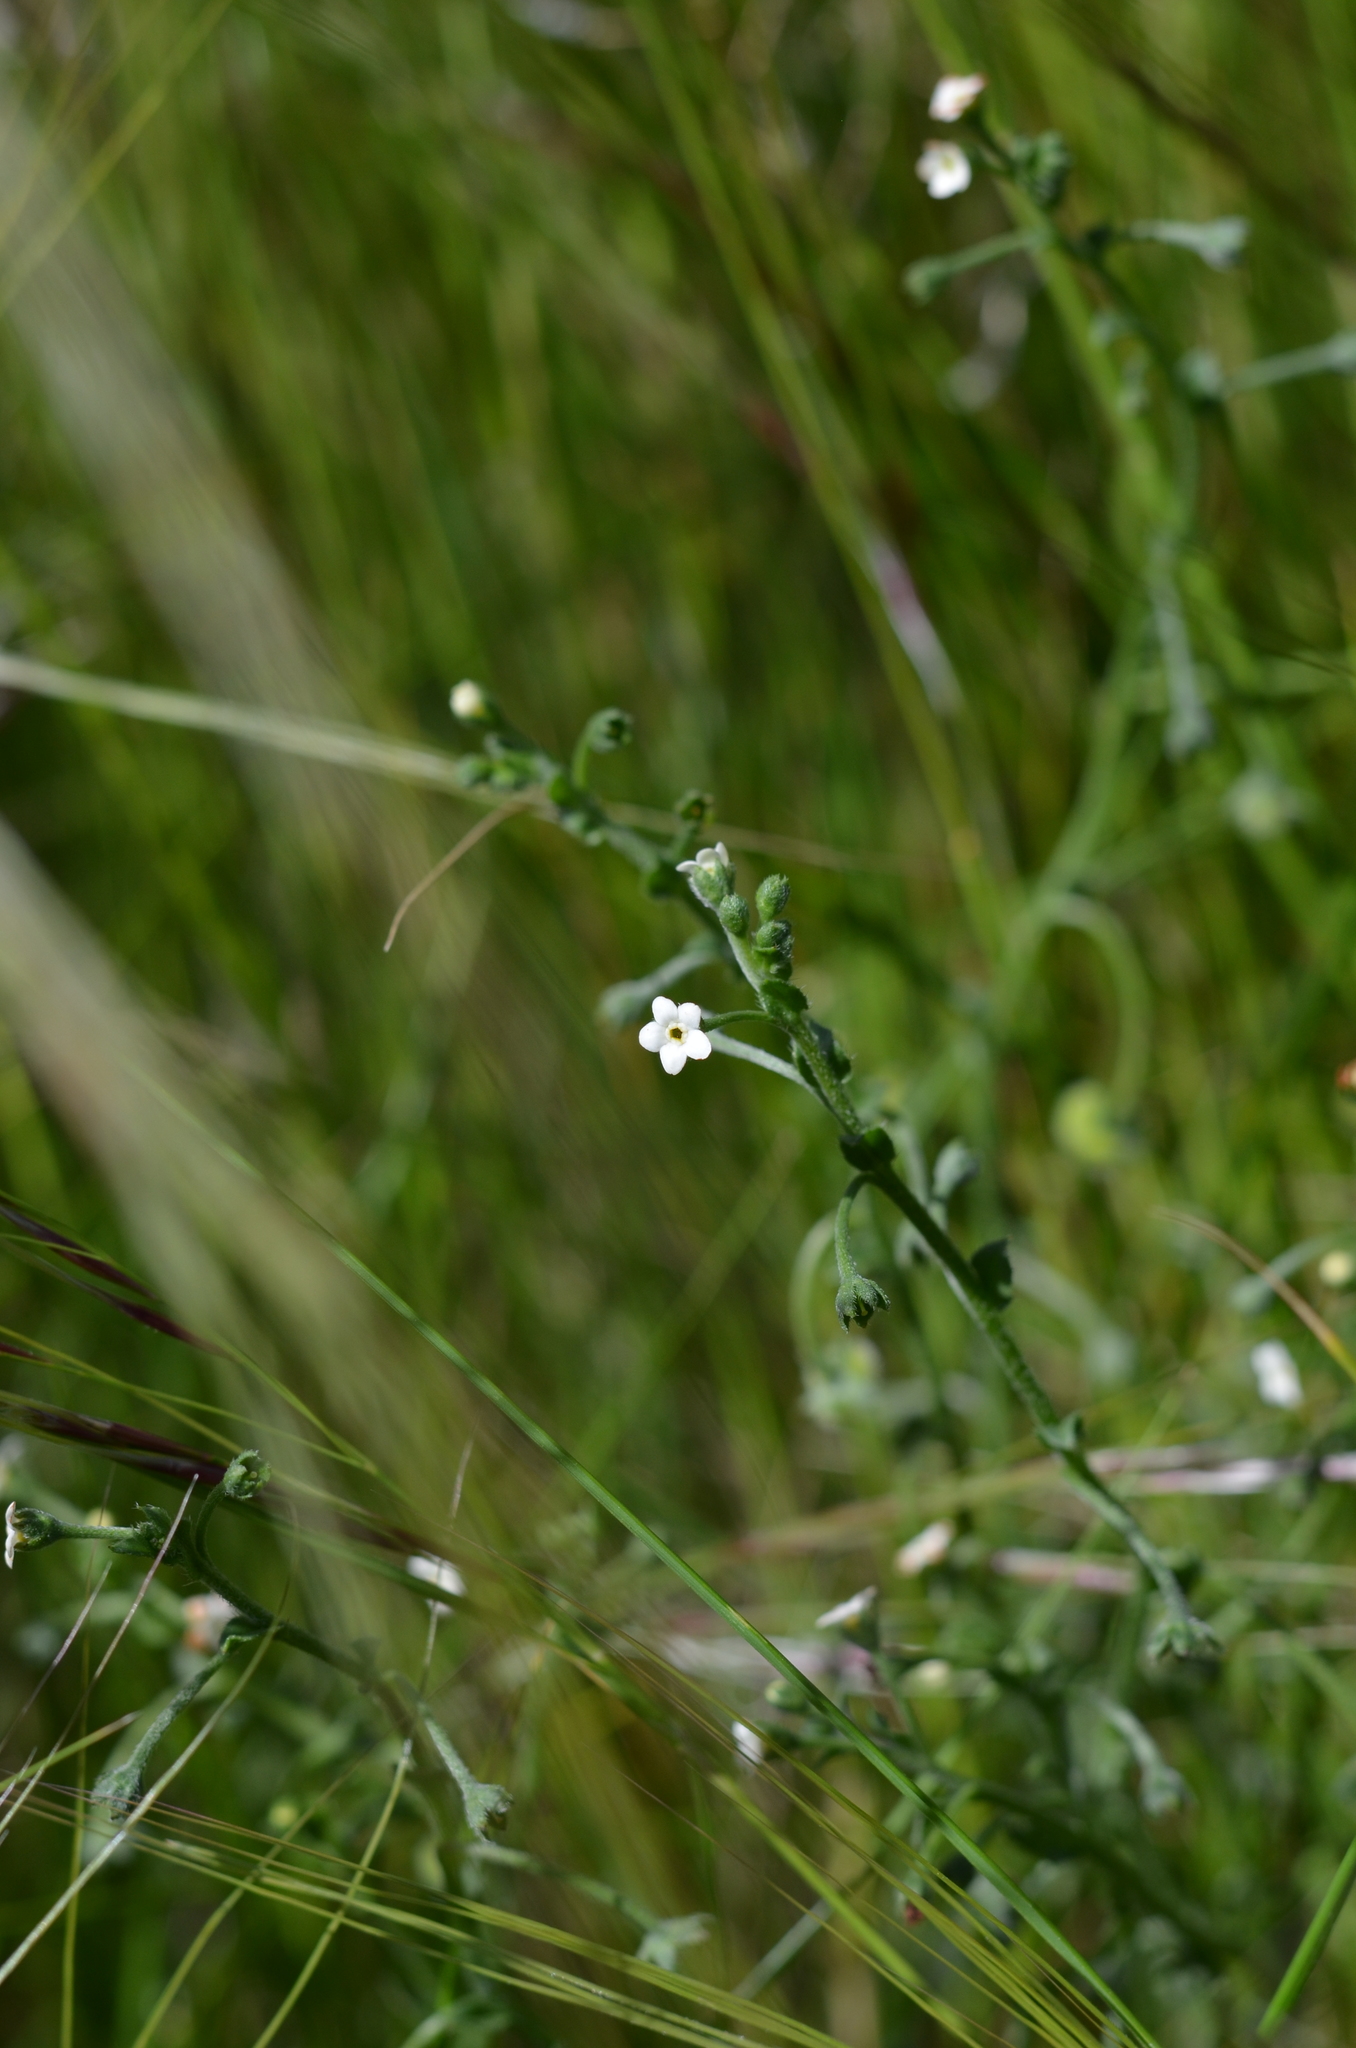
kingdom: Plantae
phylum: Tracheophyta
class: Magnoliopsida
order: Boraginales
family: Boraginaceae
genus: Hackelia
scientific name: Hackelia suaveolens
